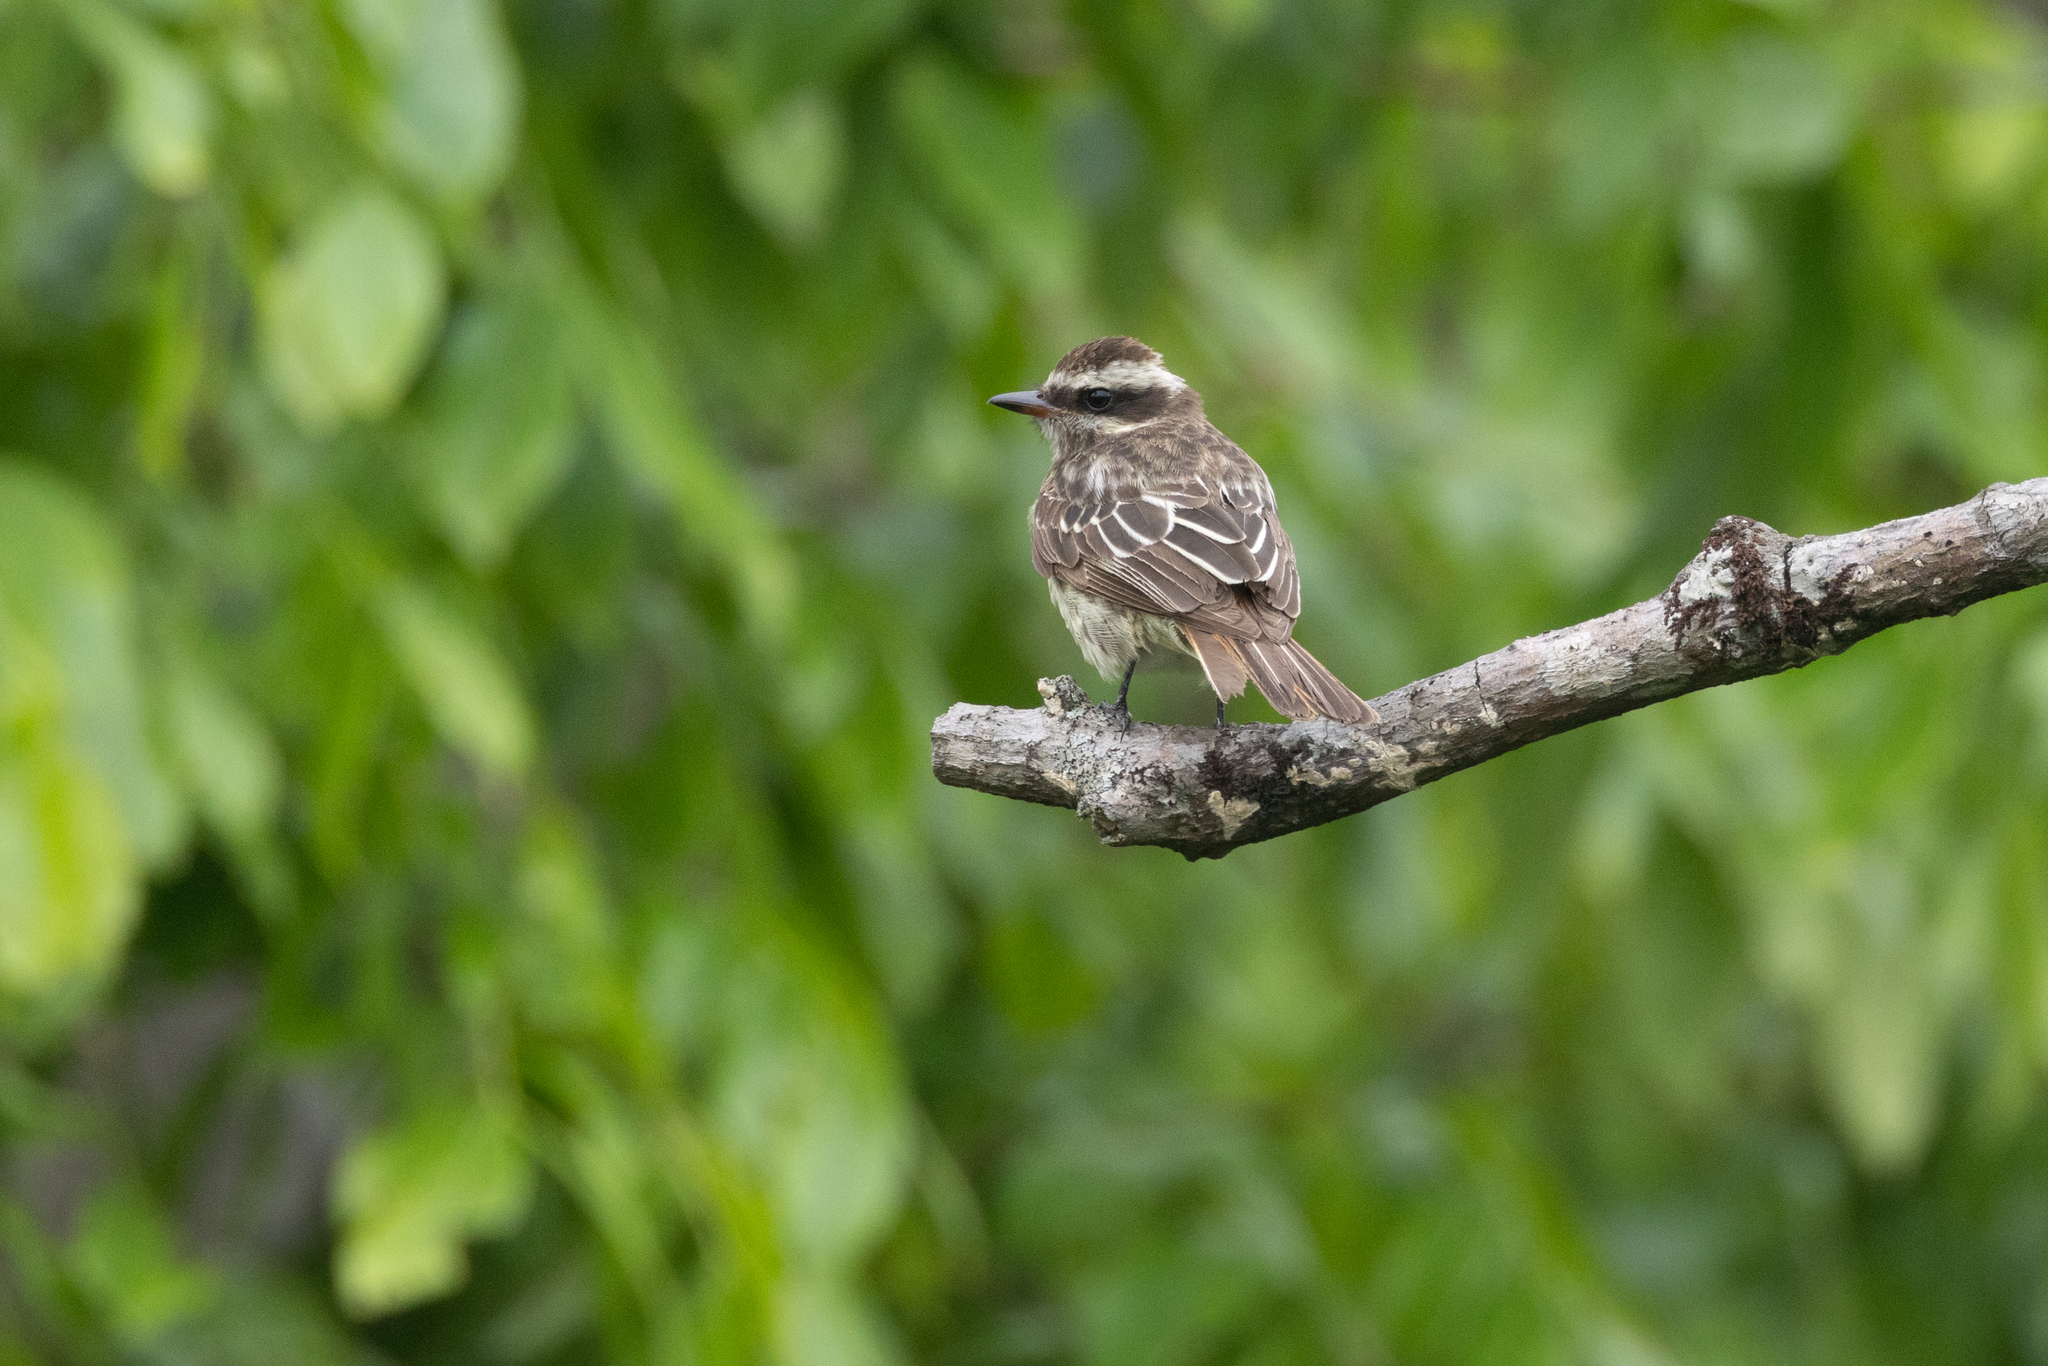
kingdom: Animalia
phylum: Chordata
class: Aves
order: Passeriformes
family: Tyrannidae
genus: Empidonomus
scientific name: Empidonomus varius
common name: Variegated flycatcher
